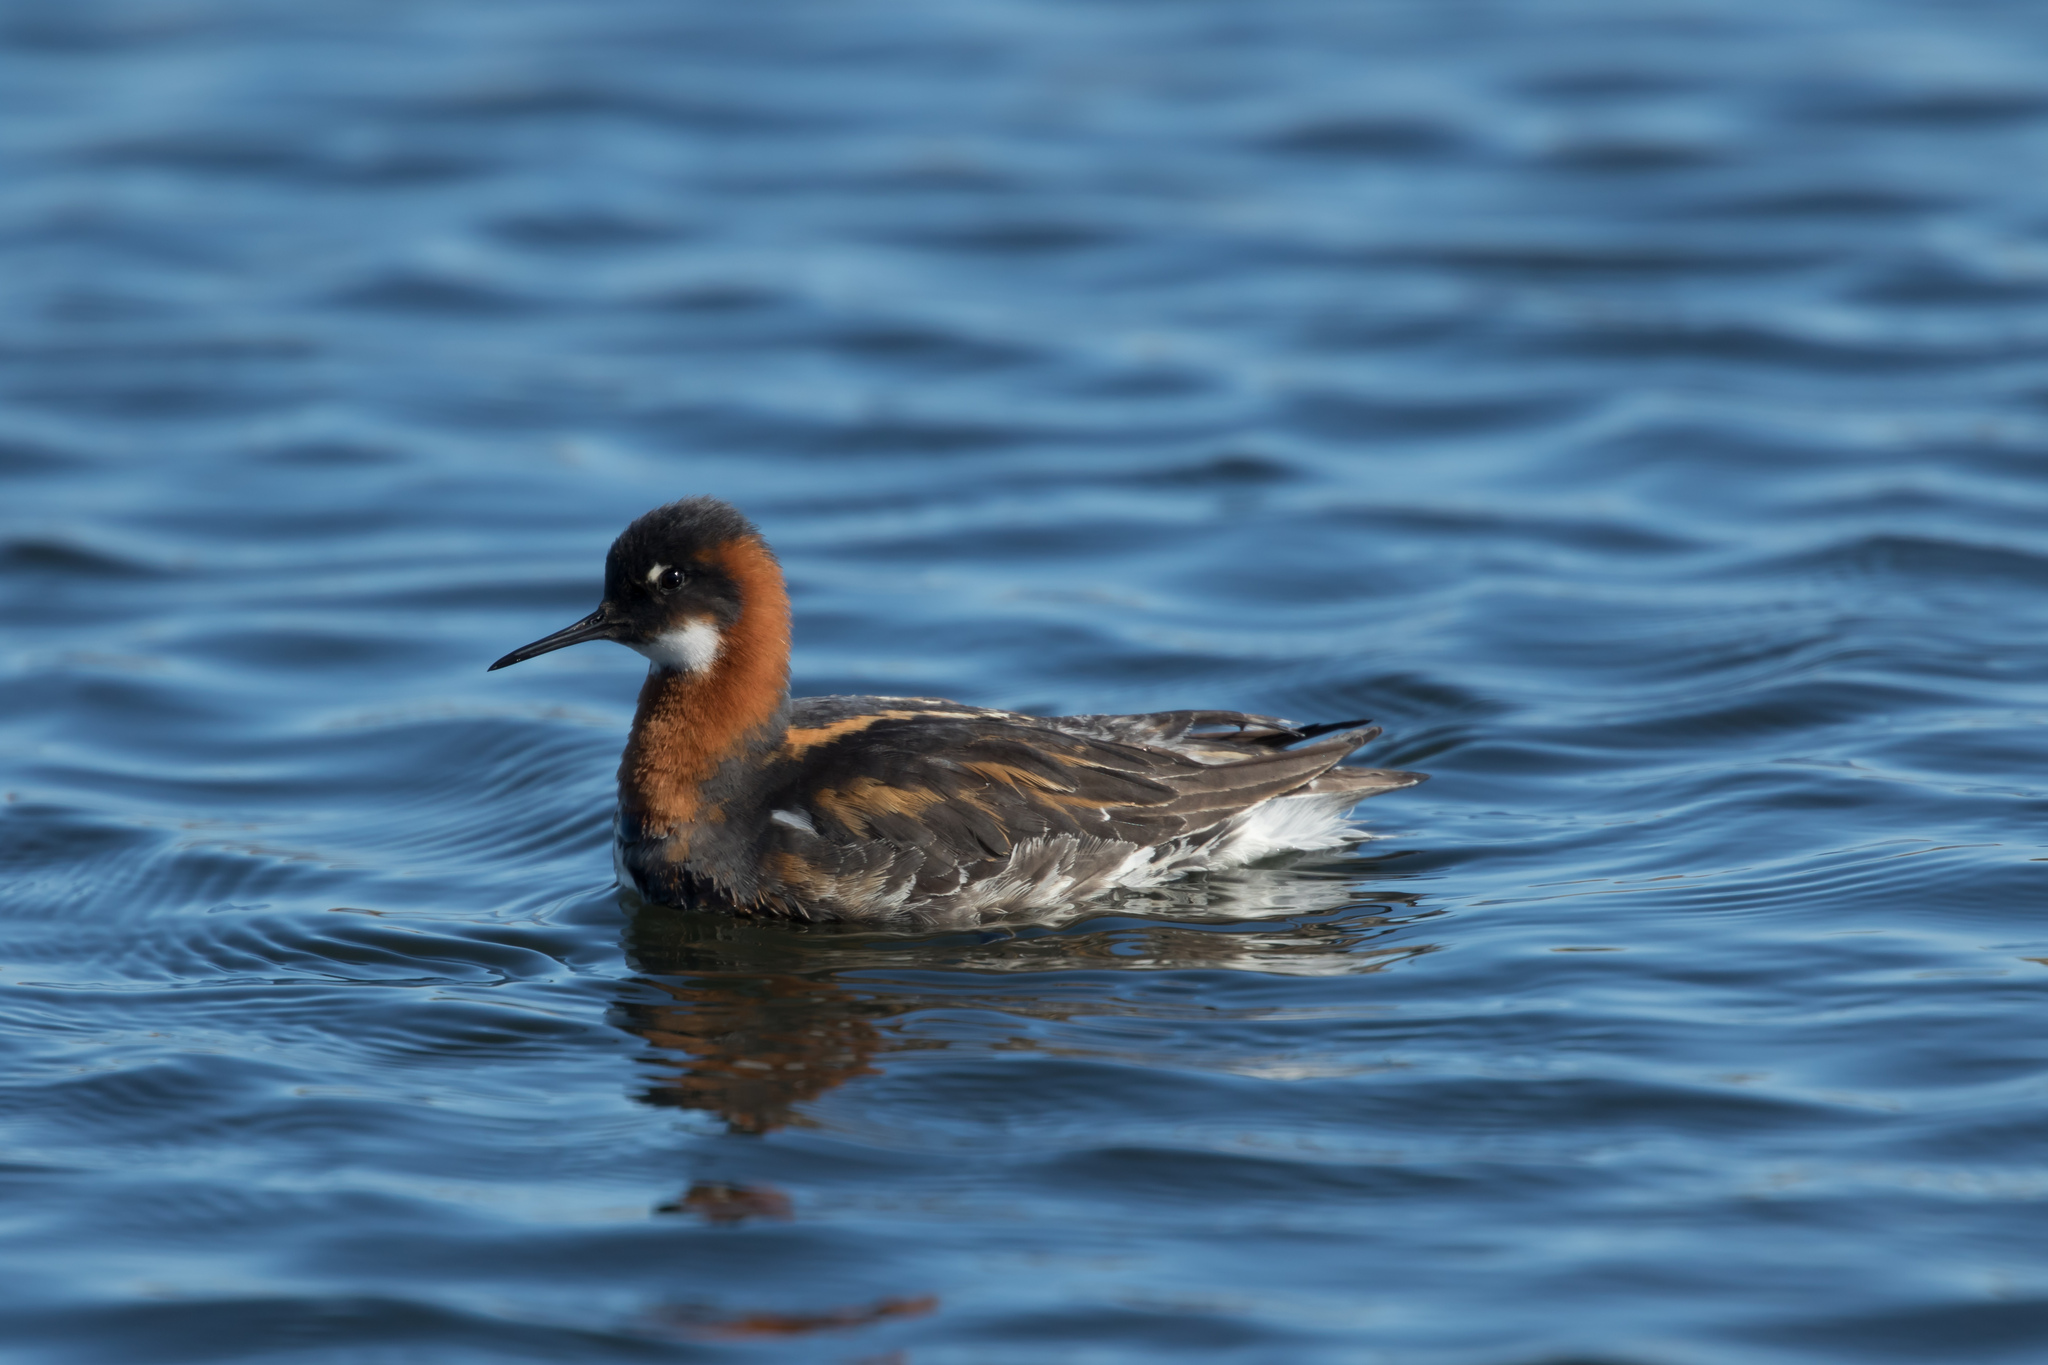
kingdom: Animalia
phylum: Chordata
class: Aves
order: Charadriiformes
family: Scolopacidae
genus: Phalaropus
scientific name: Phalaropus lobatus
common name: Red-necked phalarope
